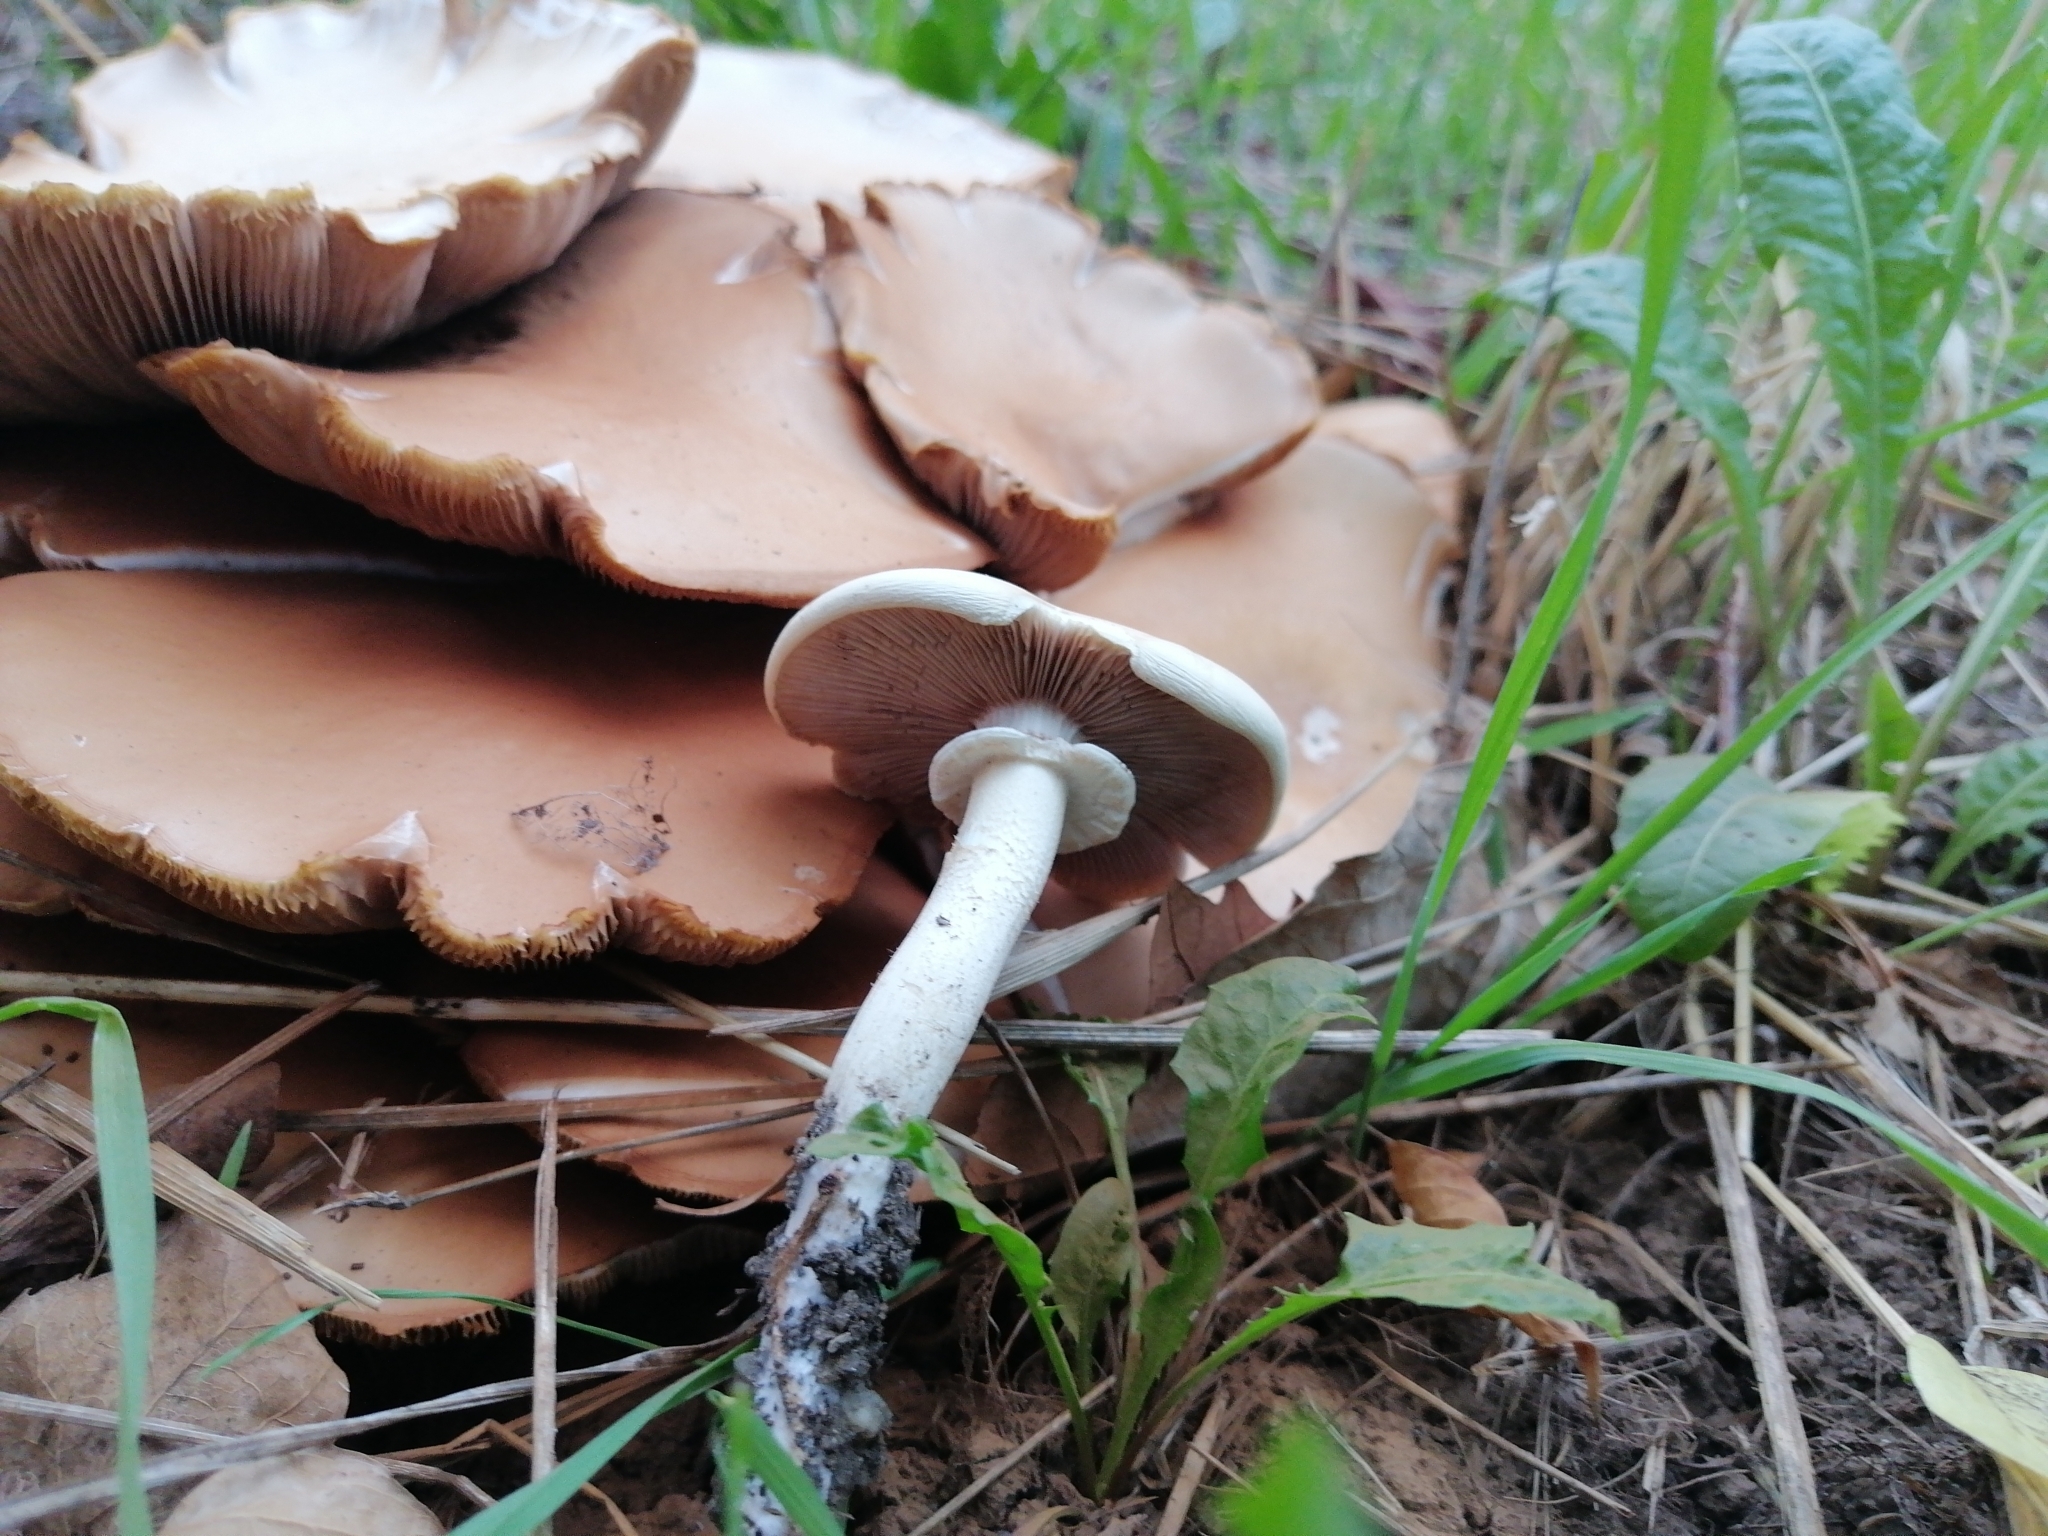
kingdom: Fungi
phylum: Basidiomycota
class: Agaricomycetes
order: Agaricales
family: Tubariaceae
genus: Cyclocybe
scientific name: Cyclocybe cylindracea
